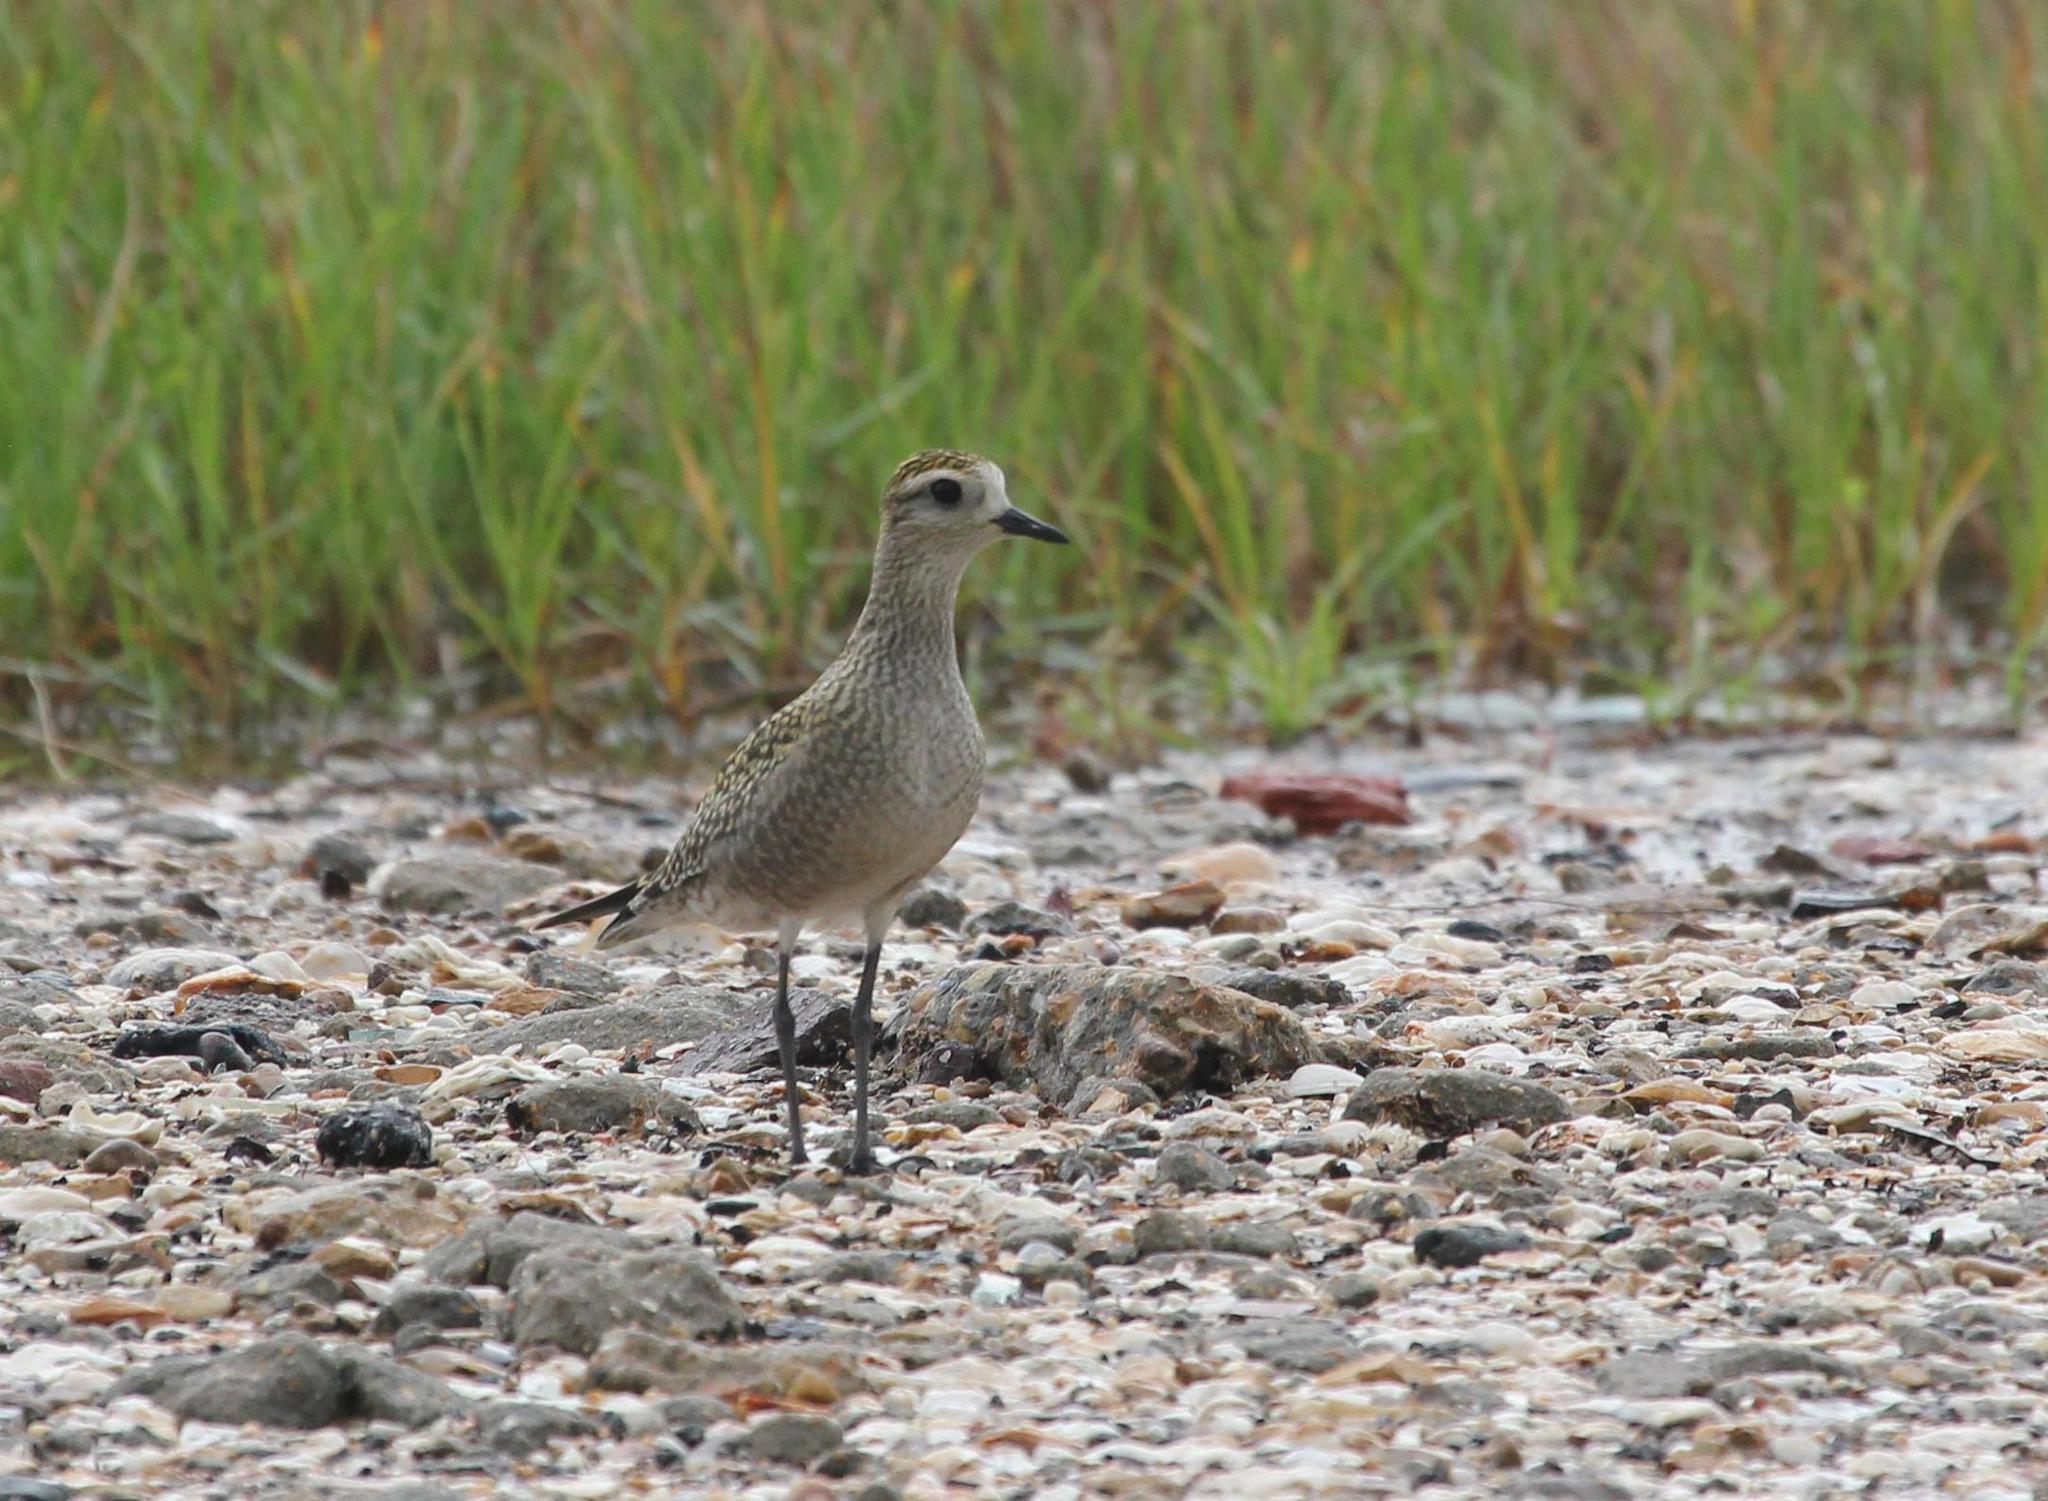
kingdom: Animalia
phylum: Chordata
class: Aves
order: Charadriiformes
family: Charadriidae
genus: Pluvialis
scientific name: Pluvialis dominica
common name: American golden plover
